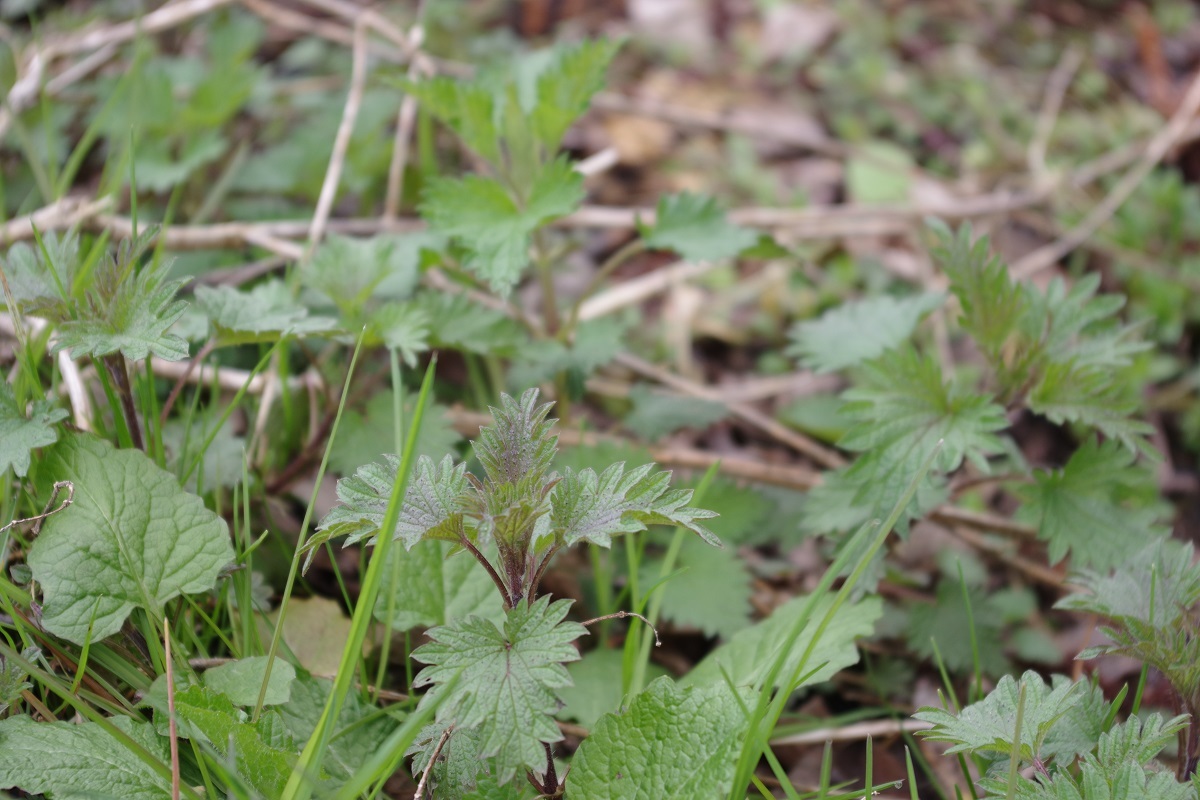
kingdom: Plantae
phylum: Tracheophyta
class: Magnoliopsida
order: Rosales
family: Urticaceae
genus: Urtica
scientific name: Urtica dioica
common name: Common nettle
